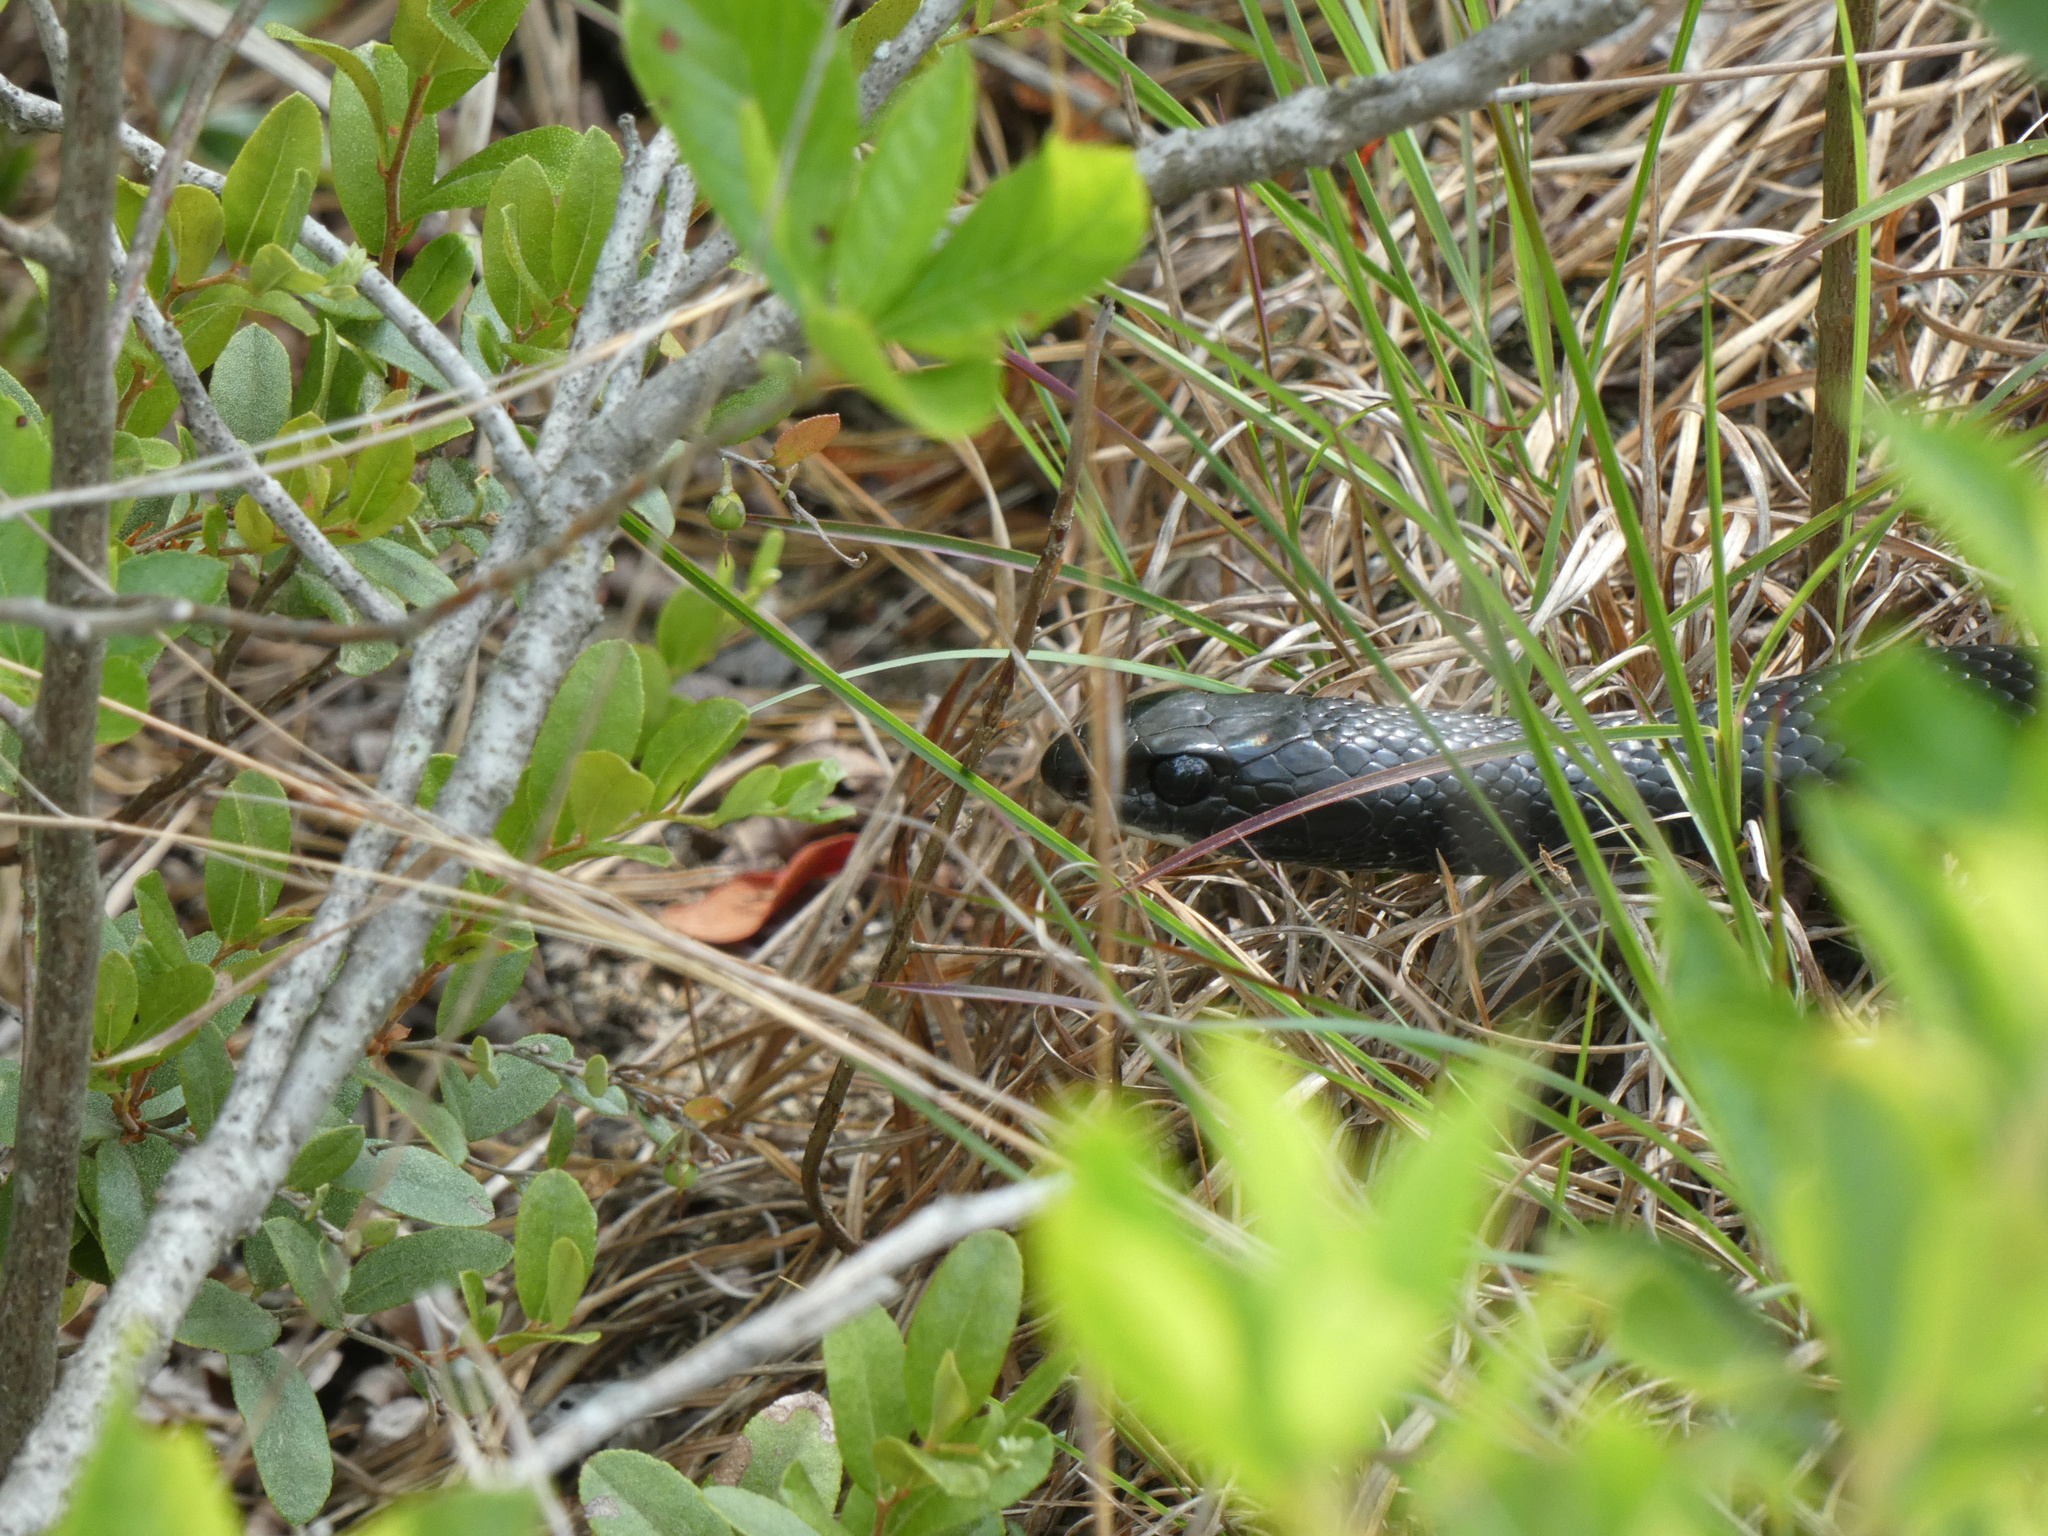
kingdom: Animalia
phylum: Chordata
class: Squamata
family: Colubridae
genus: Coluber
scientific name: Coluber constrictor
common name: Eastern racer
